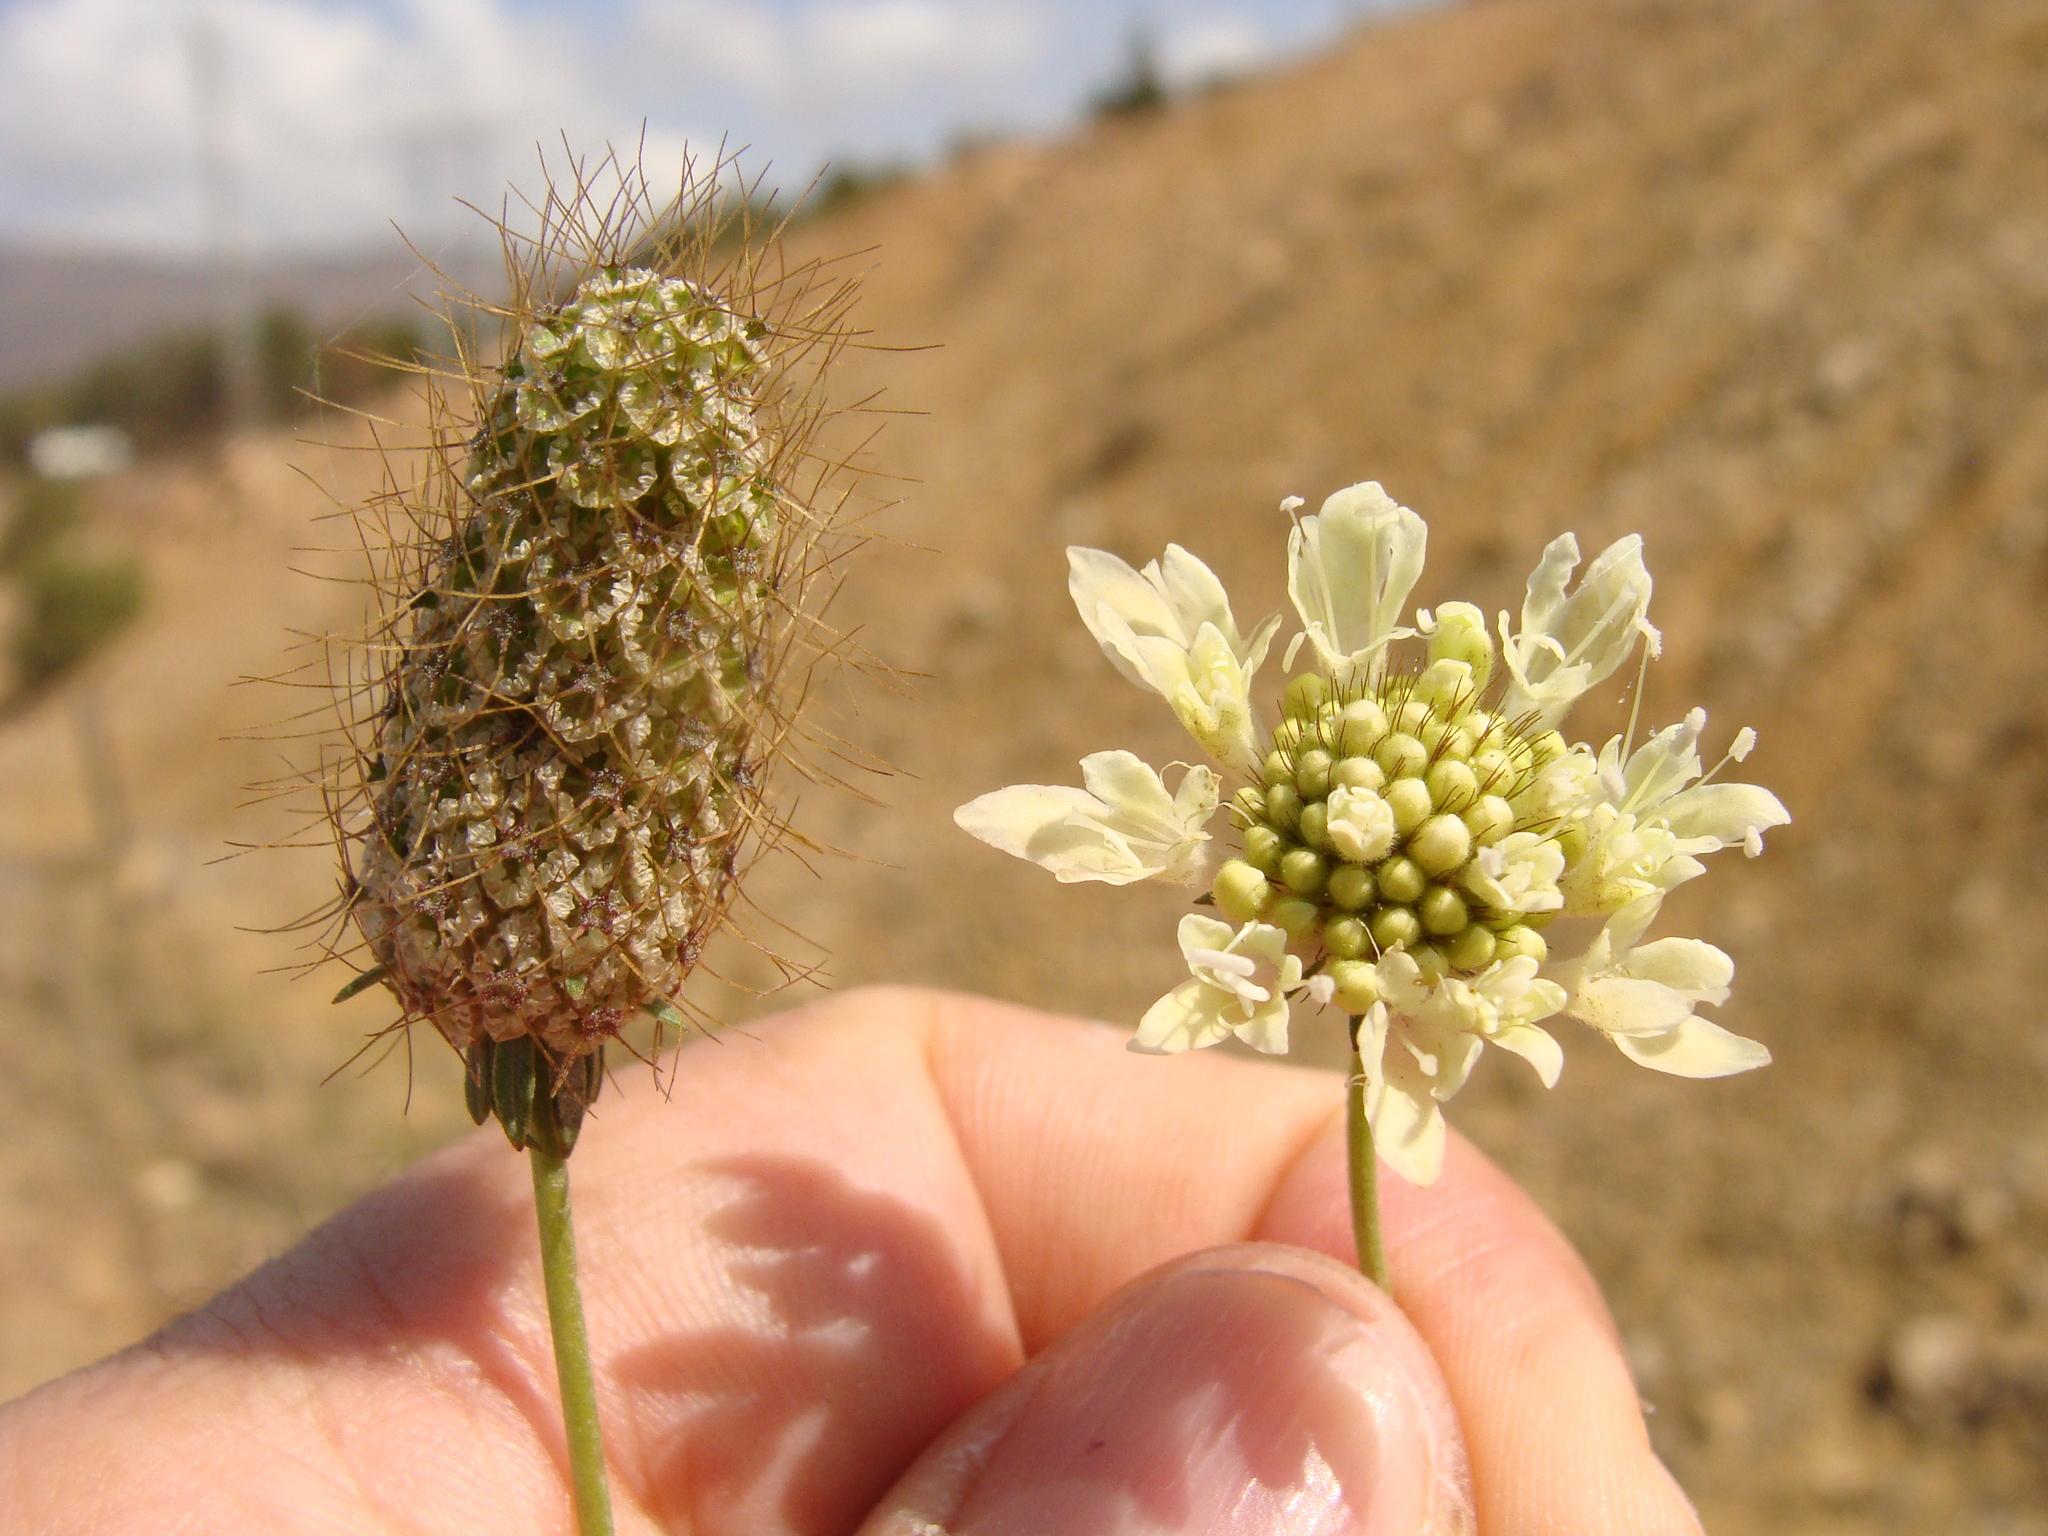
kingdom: Plantae
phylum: Tracheophyta
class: Magnoliopsida
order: Dipsacales
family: Caprifoliaceae
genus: Sixalix
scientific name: Sixalix atropurpurea
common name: Sweet scabious
